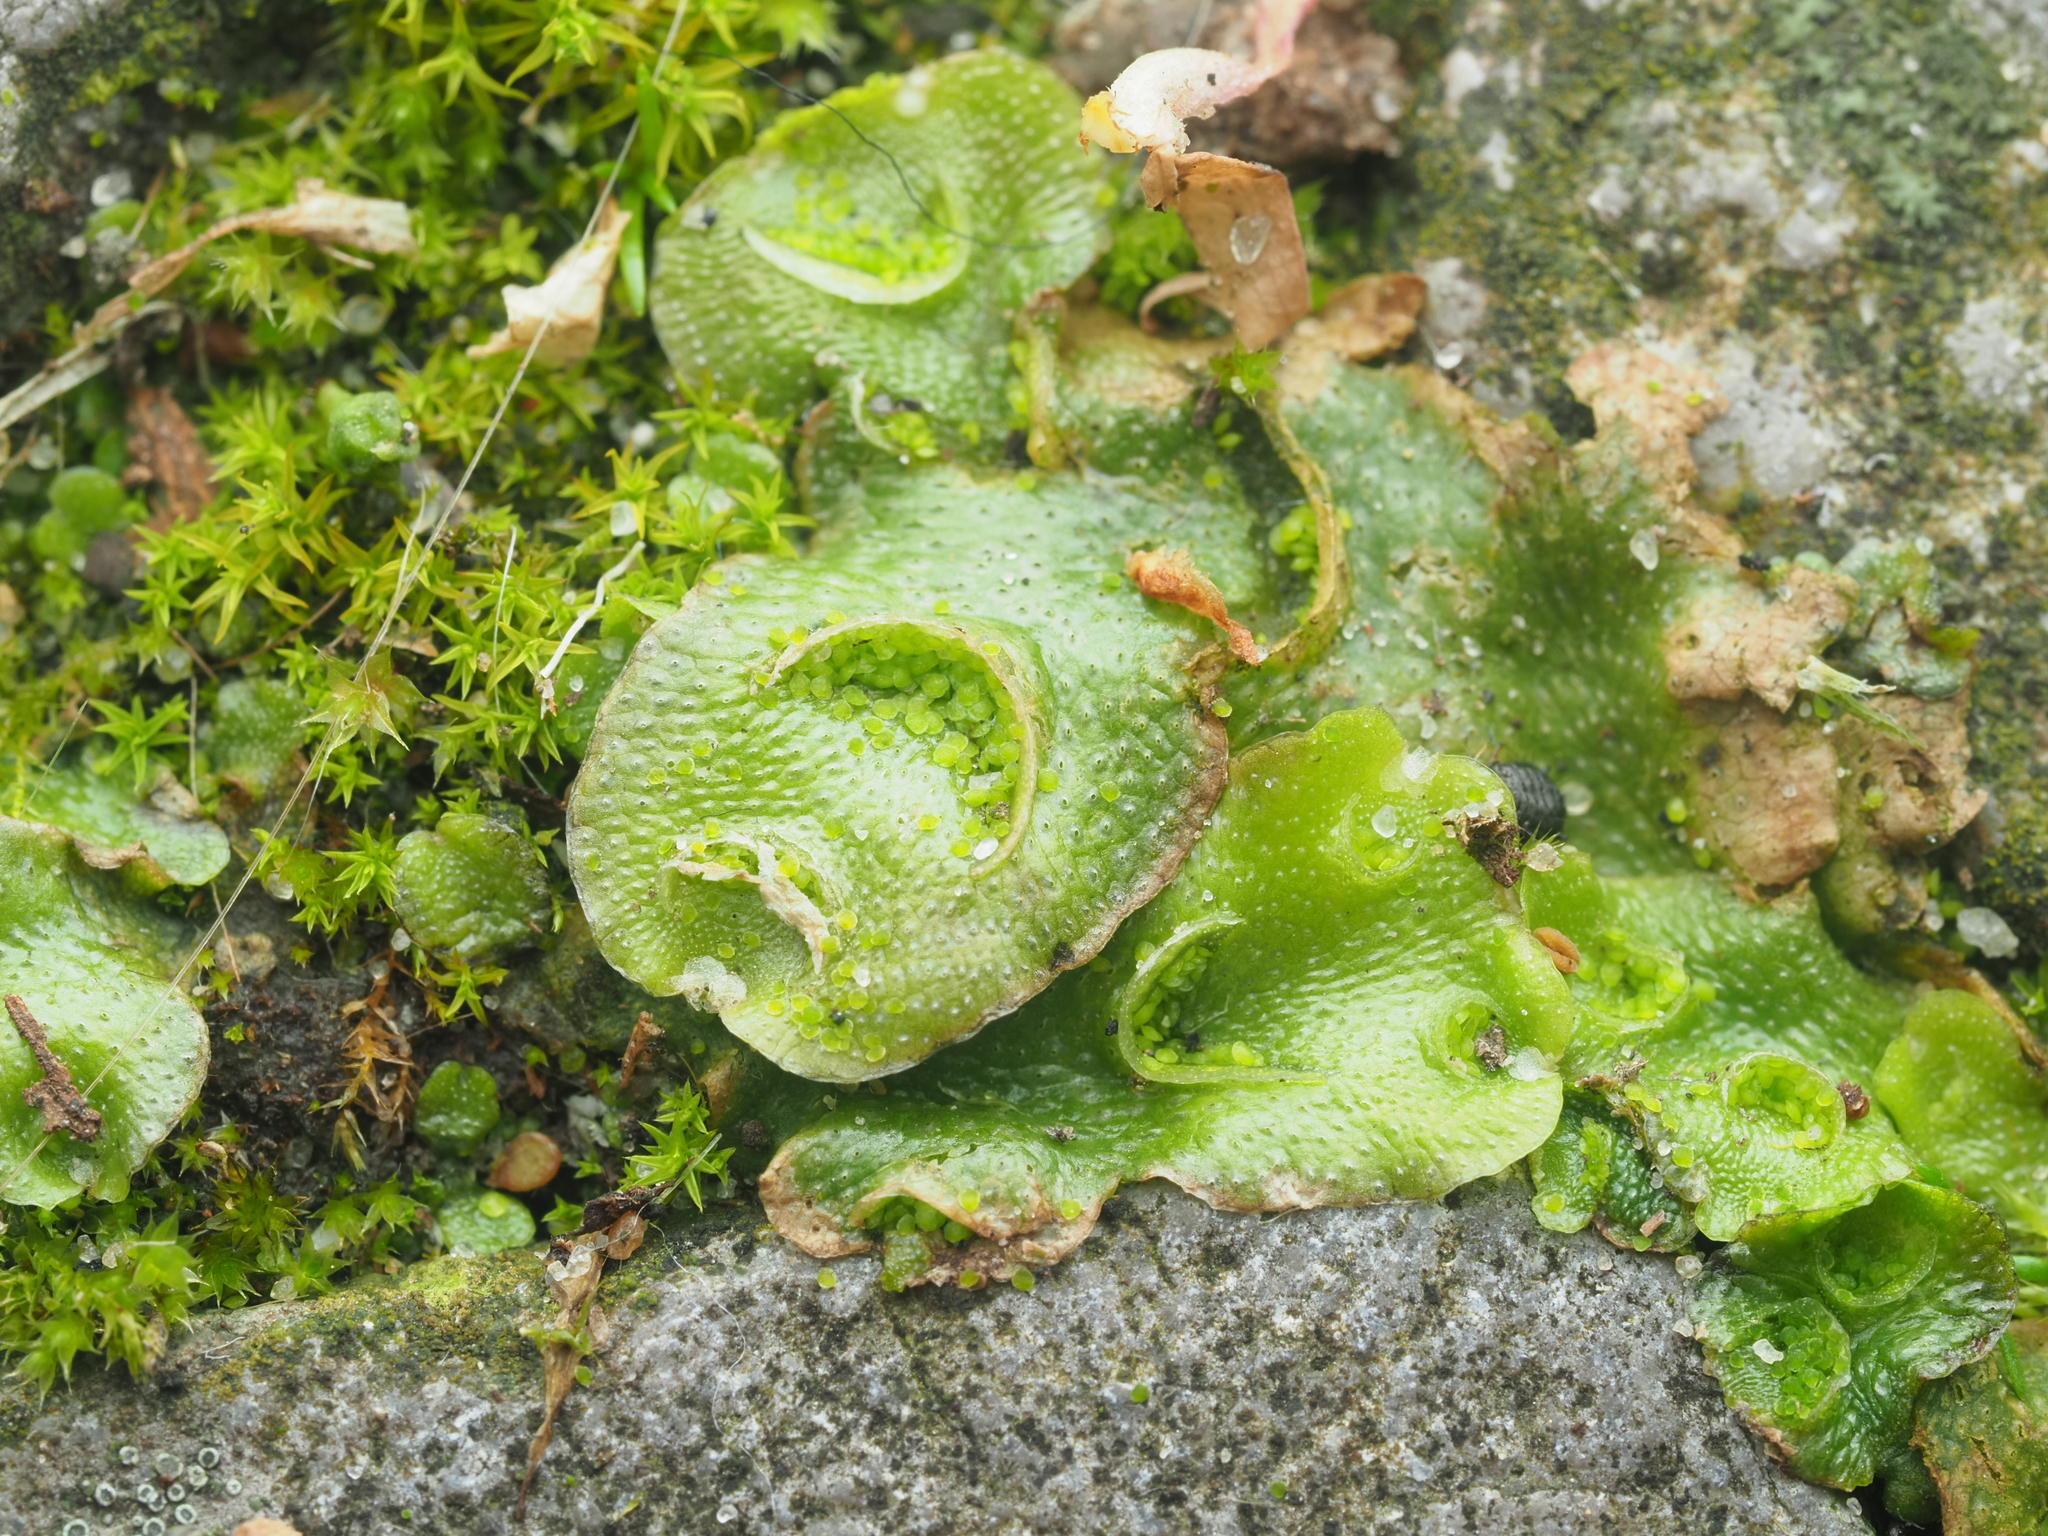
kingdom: Plantae
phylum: Marchantiophyta
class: Marchantiopsida
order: Lunulariales
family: Lunulariaceae
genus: Lunularia
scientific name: Lunularia cruciata
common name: Crescent-cup liverwort
